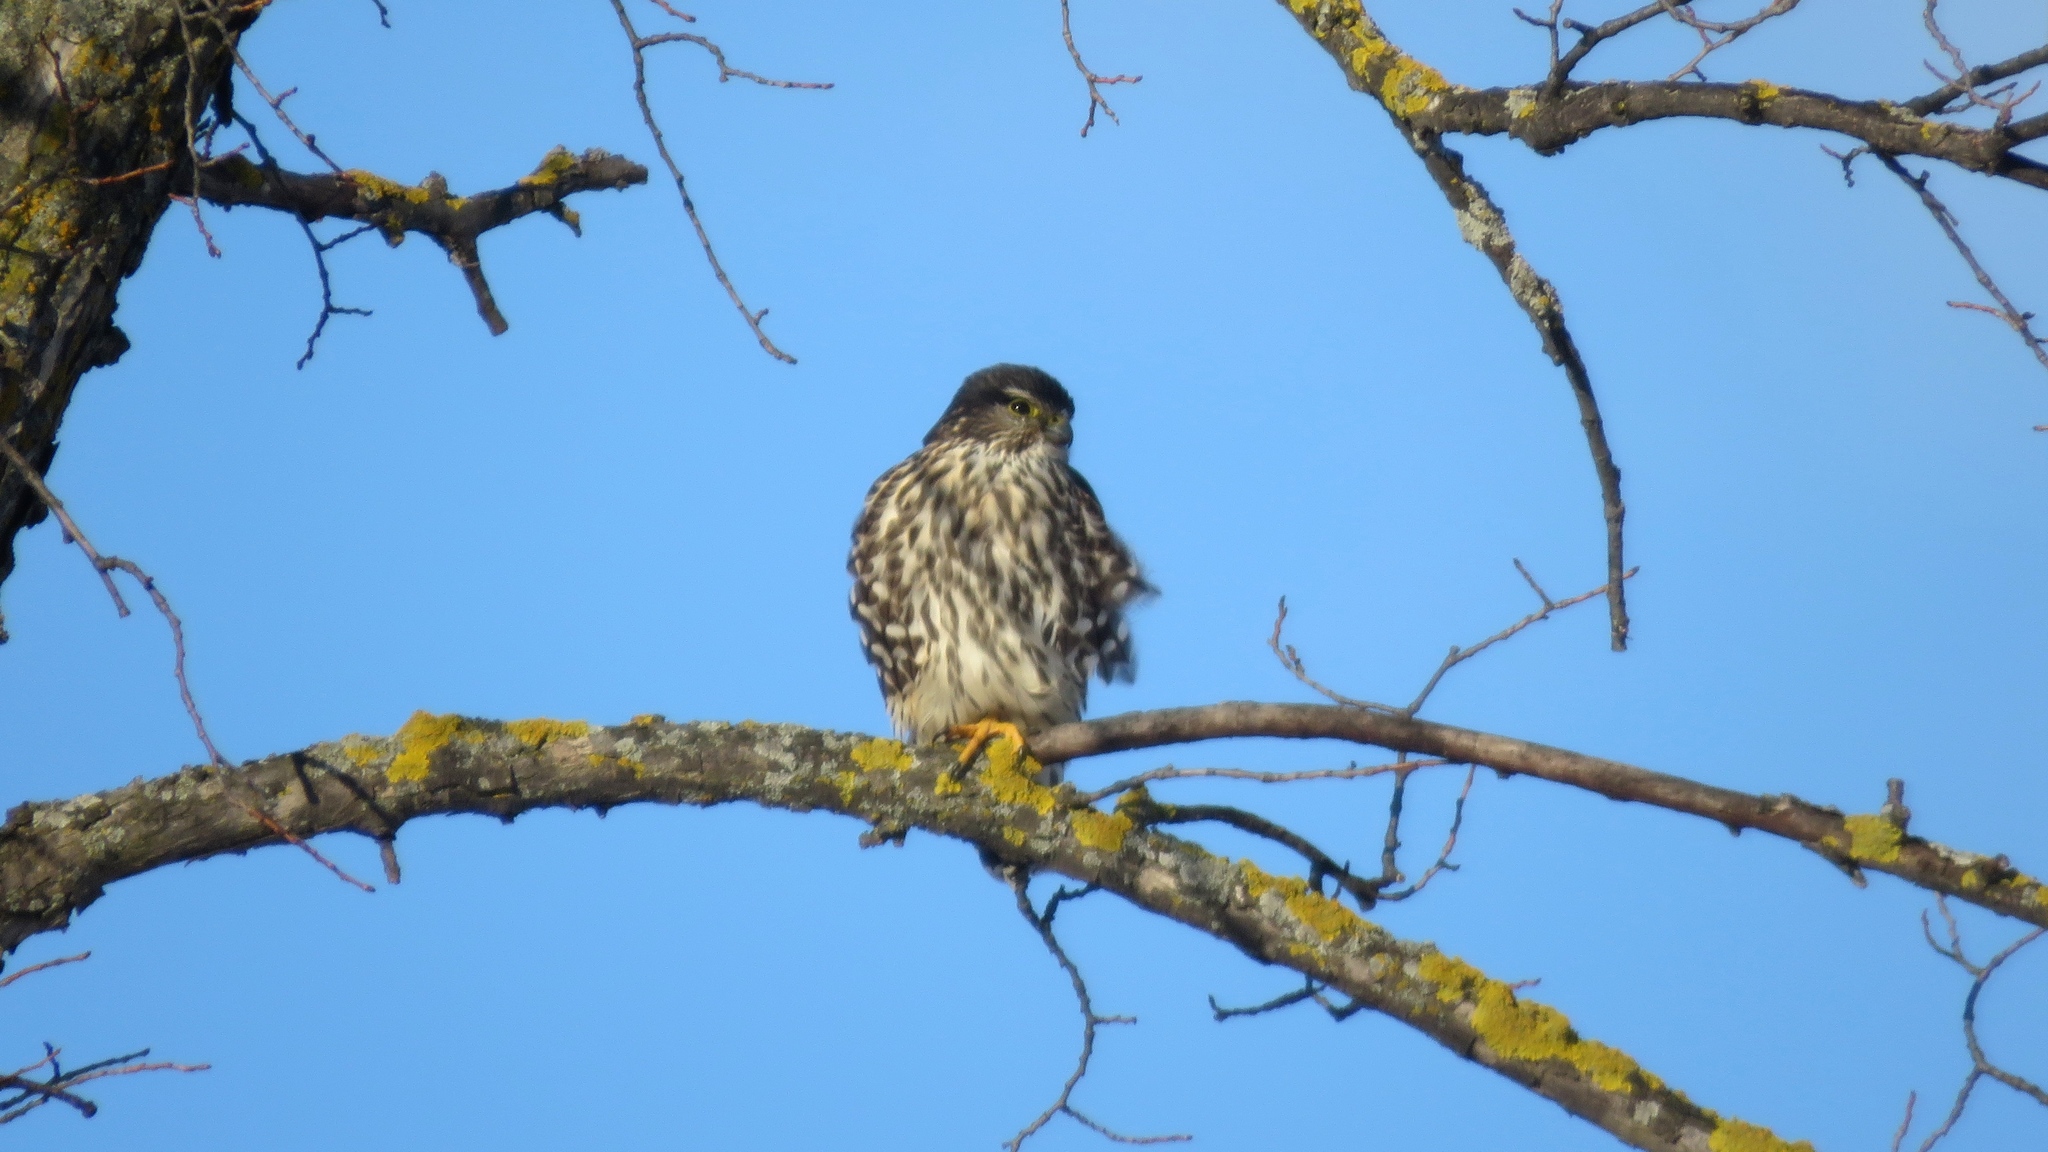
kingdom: Animalia
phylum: Chordata
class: Aves
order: Falconiformes
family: Falconidae
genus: Falco
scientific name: Falco columbarius
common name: Merlin
